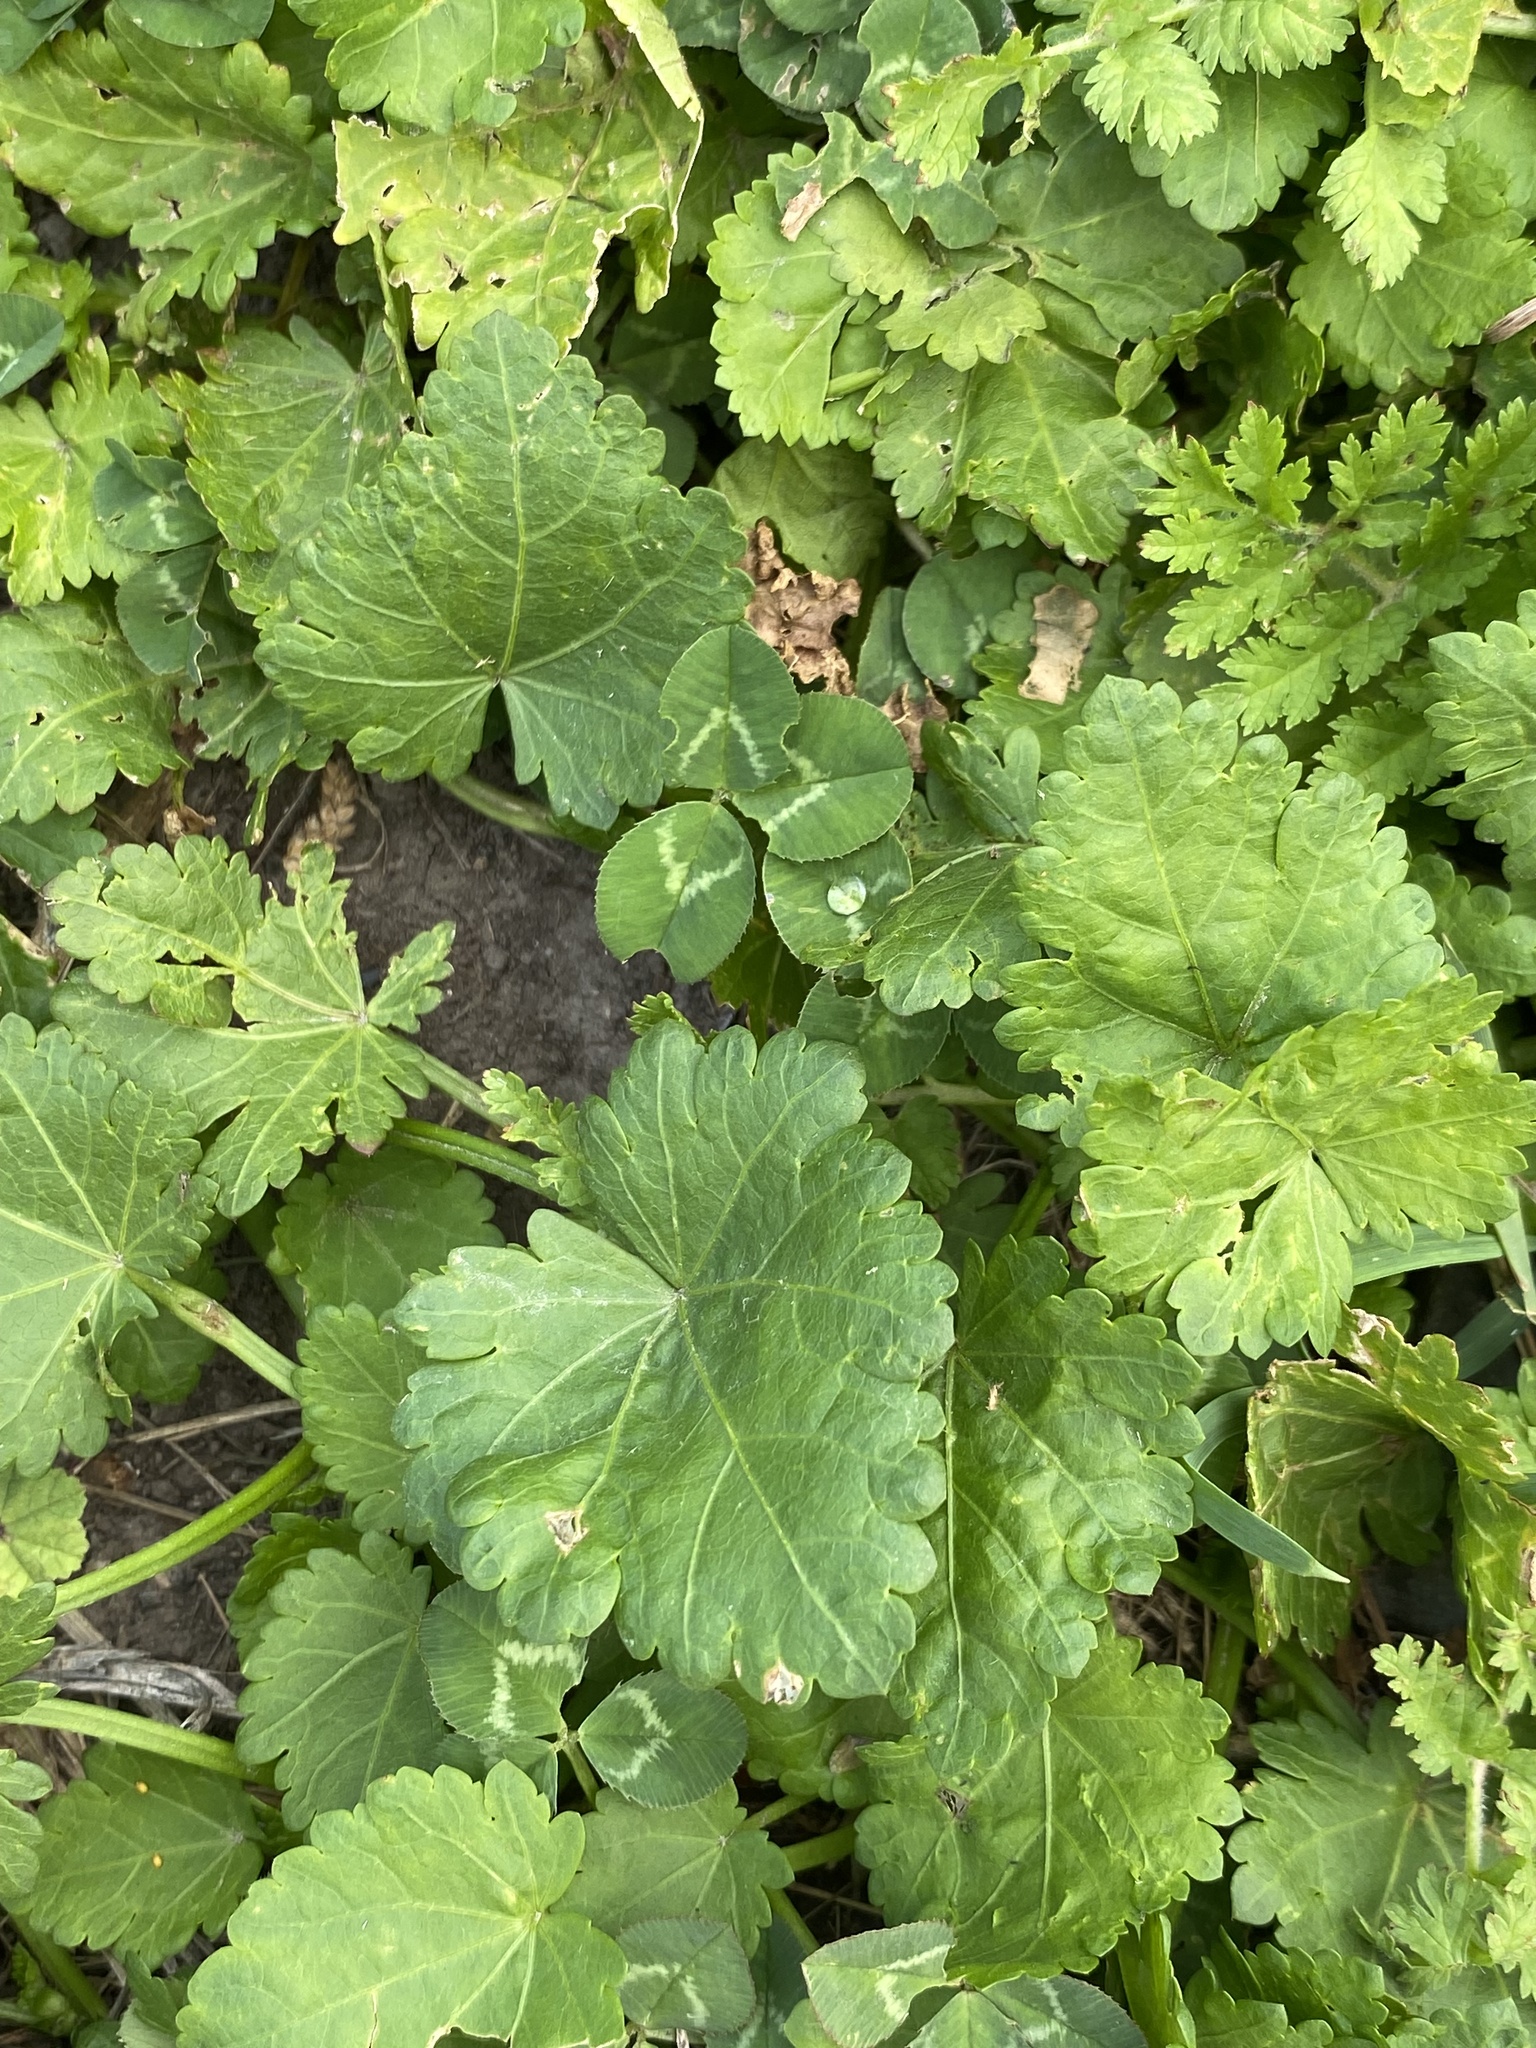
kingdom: Plantae
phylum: Tracheophyta
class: Magnoliopsida
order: Malvales
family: Malvaceae
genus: Modiola
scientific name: Modiola caroliniana
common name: Carolina bristlemallow
